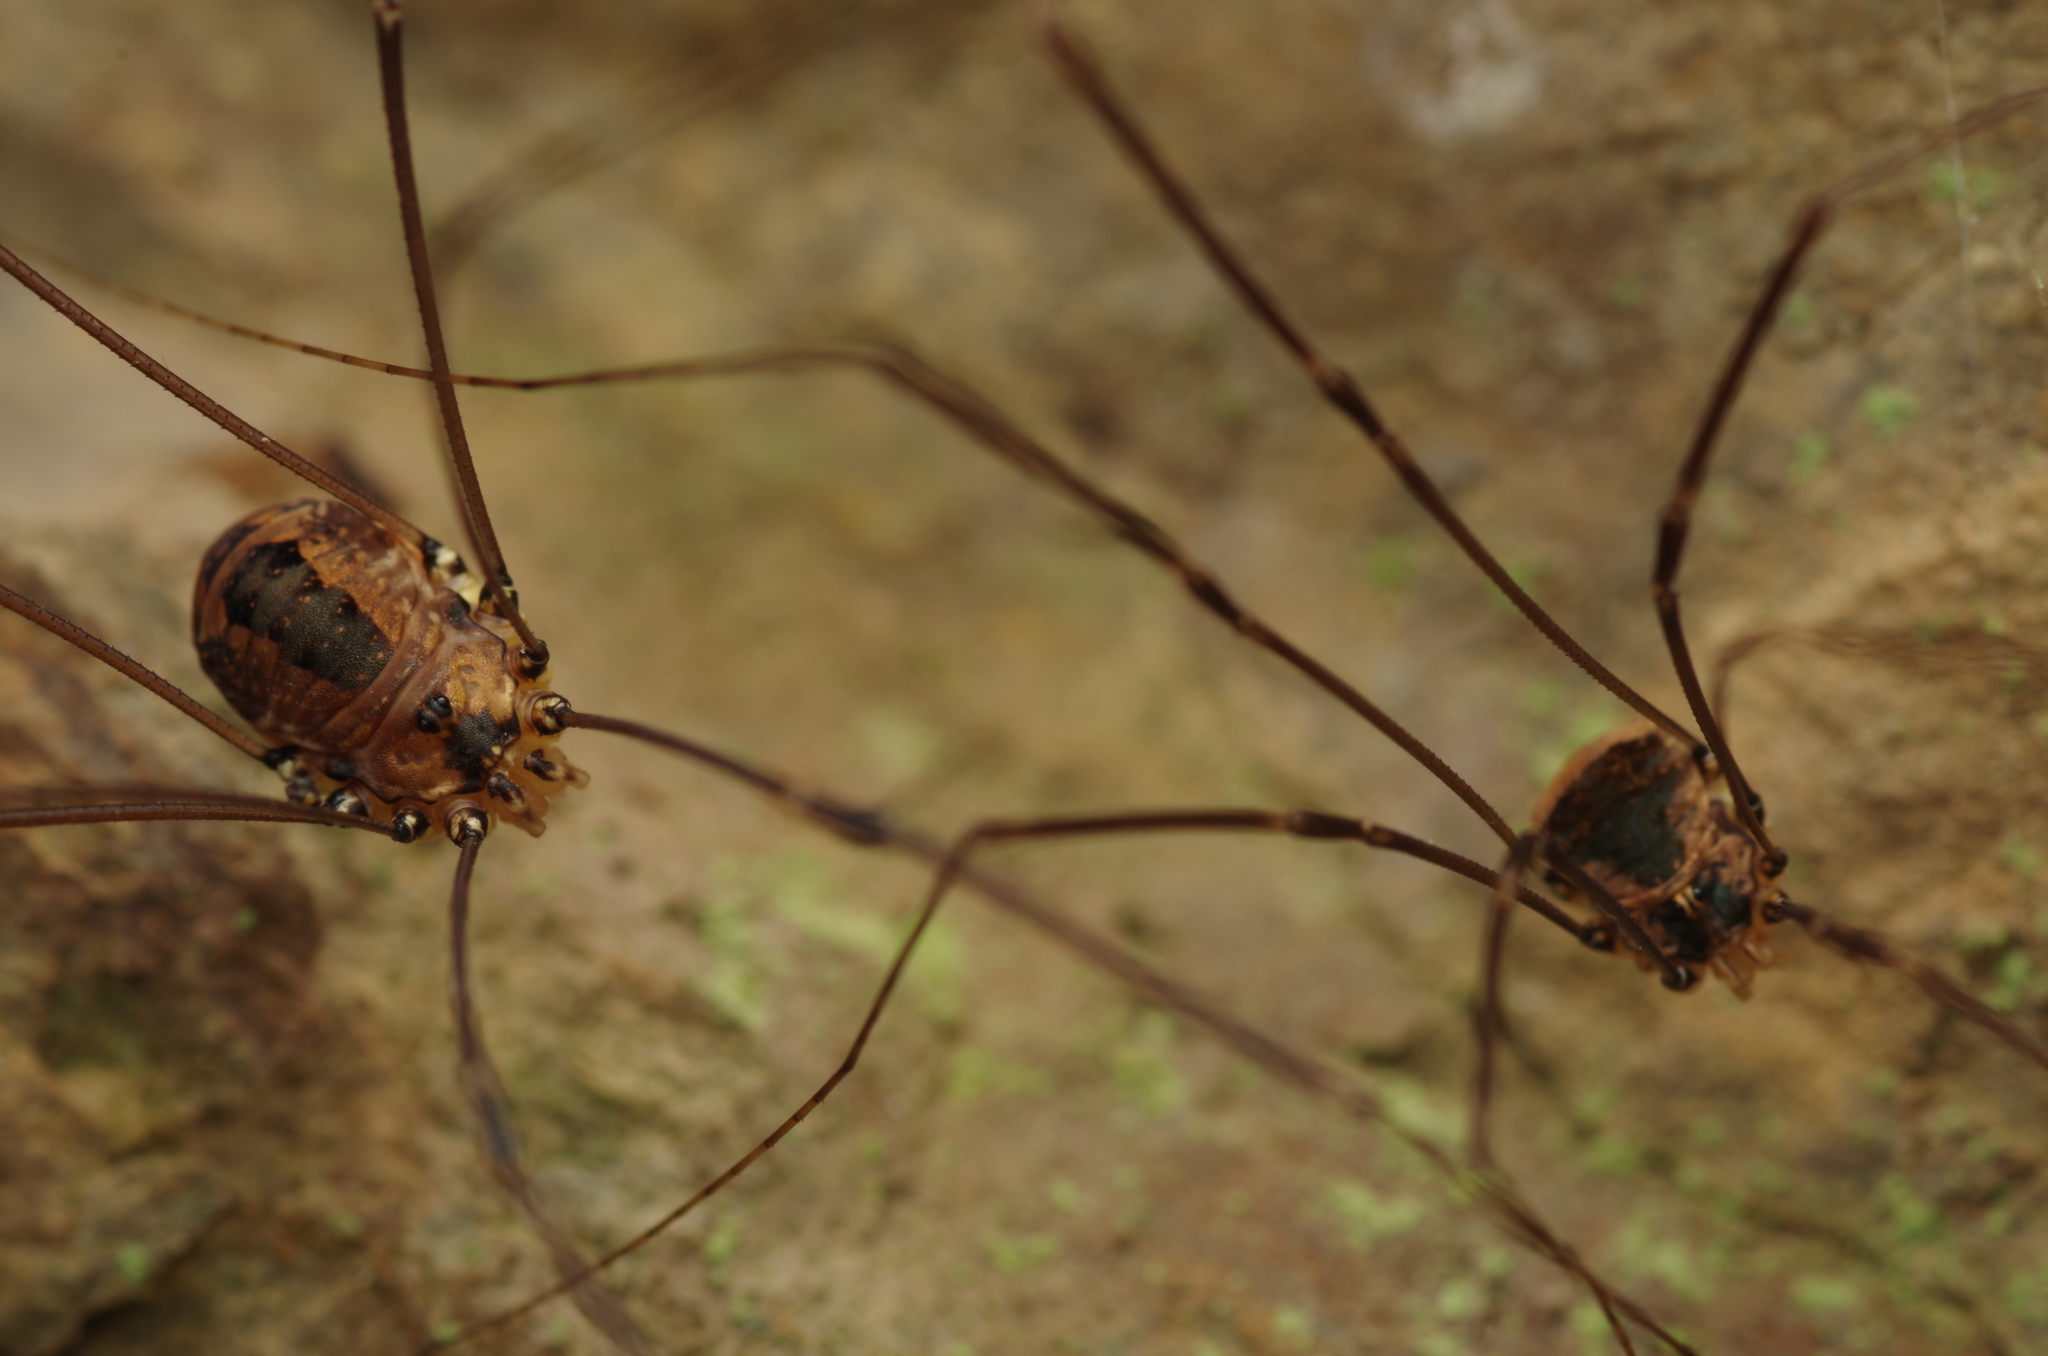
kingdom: Animalia
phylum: Arthropoda
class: Arachnida
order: Opiliones
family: Sclerosomatidae
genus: Leiobunum
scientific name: Leiobunum rotundum
